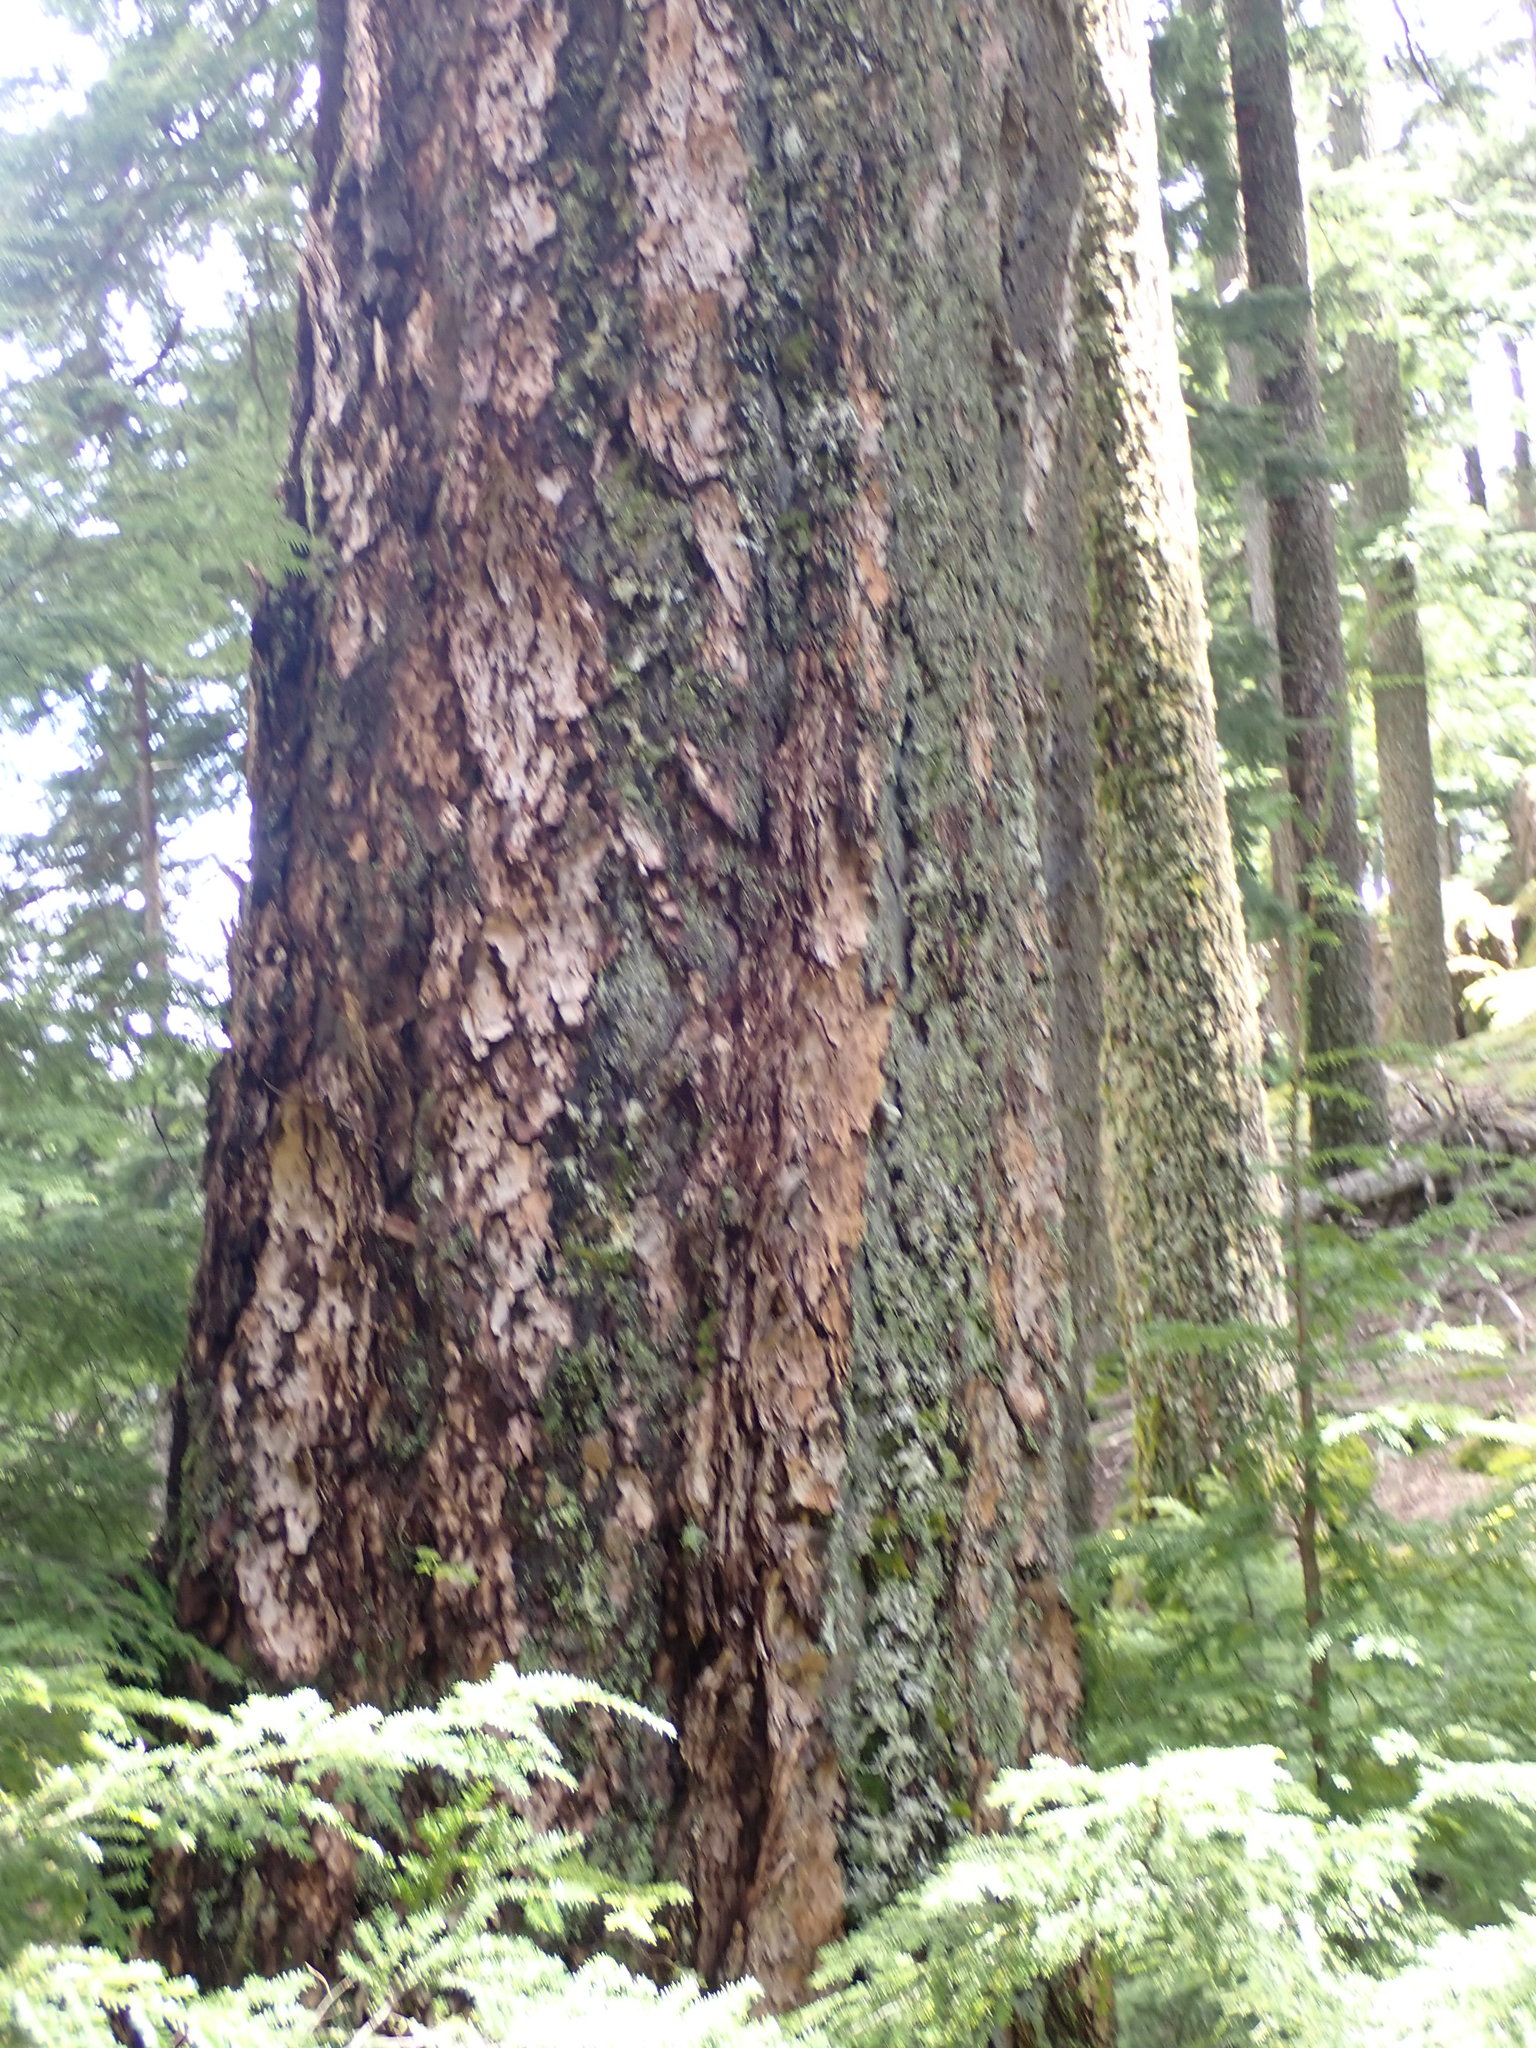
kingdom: Plantae
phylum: Tracheophyta
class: Pinopsida
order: Pinales
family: Pinaceae
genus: Pseudotsuga
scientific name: Pseudotsuga menziesii
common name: Douglas fir
